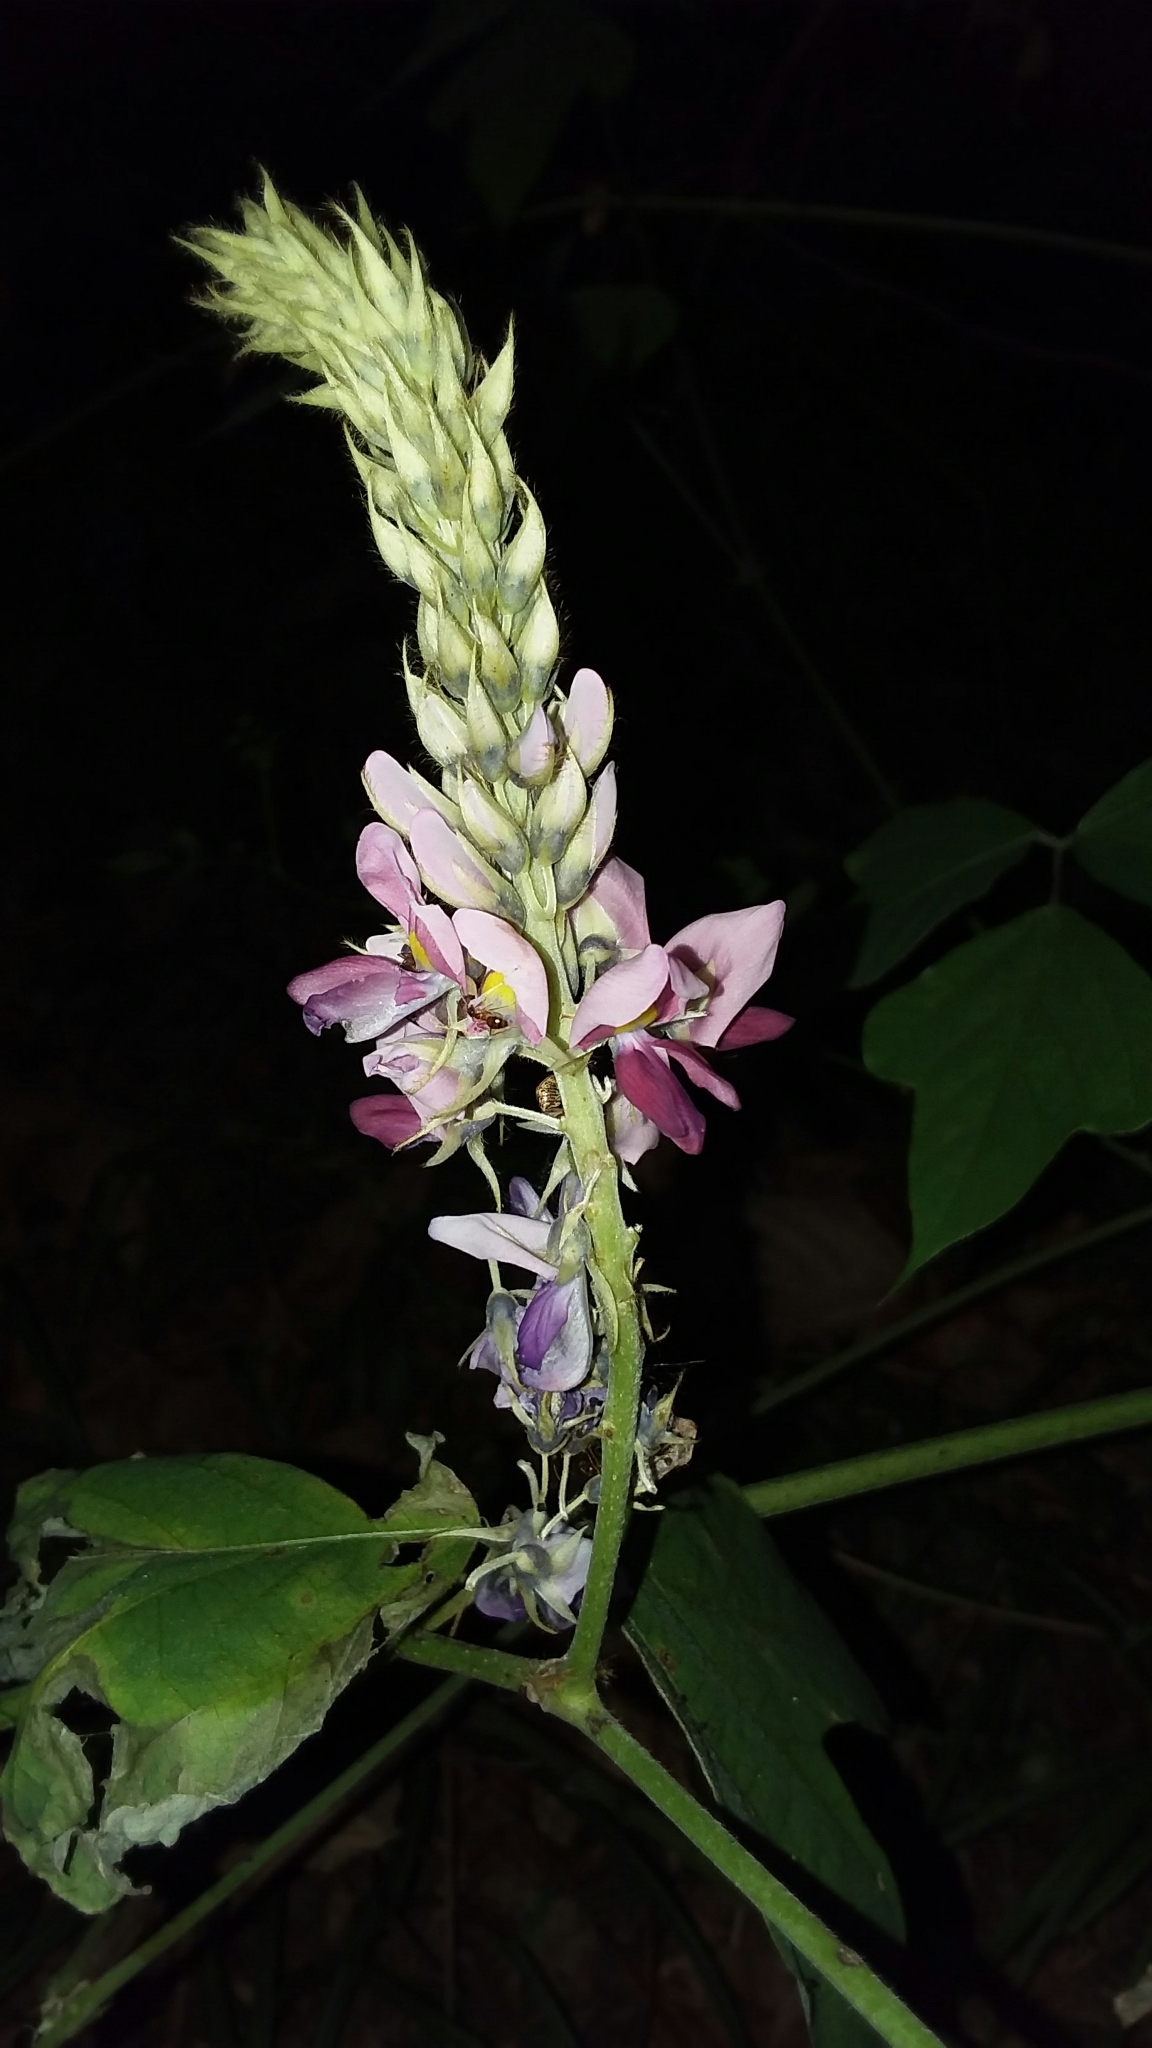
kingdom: Plantae
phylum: Tracheophyta
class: Magnoliopsida
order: Fabales
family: Fabaceae
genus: Pueraria
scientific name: Pueraria montana
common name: Kudzu
